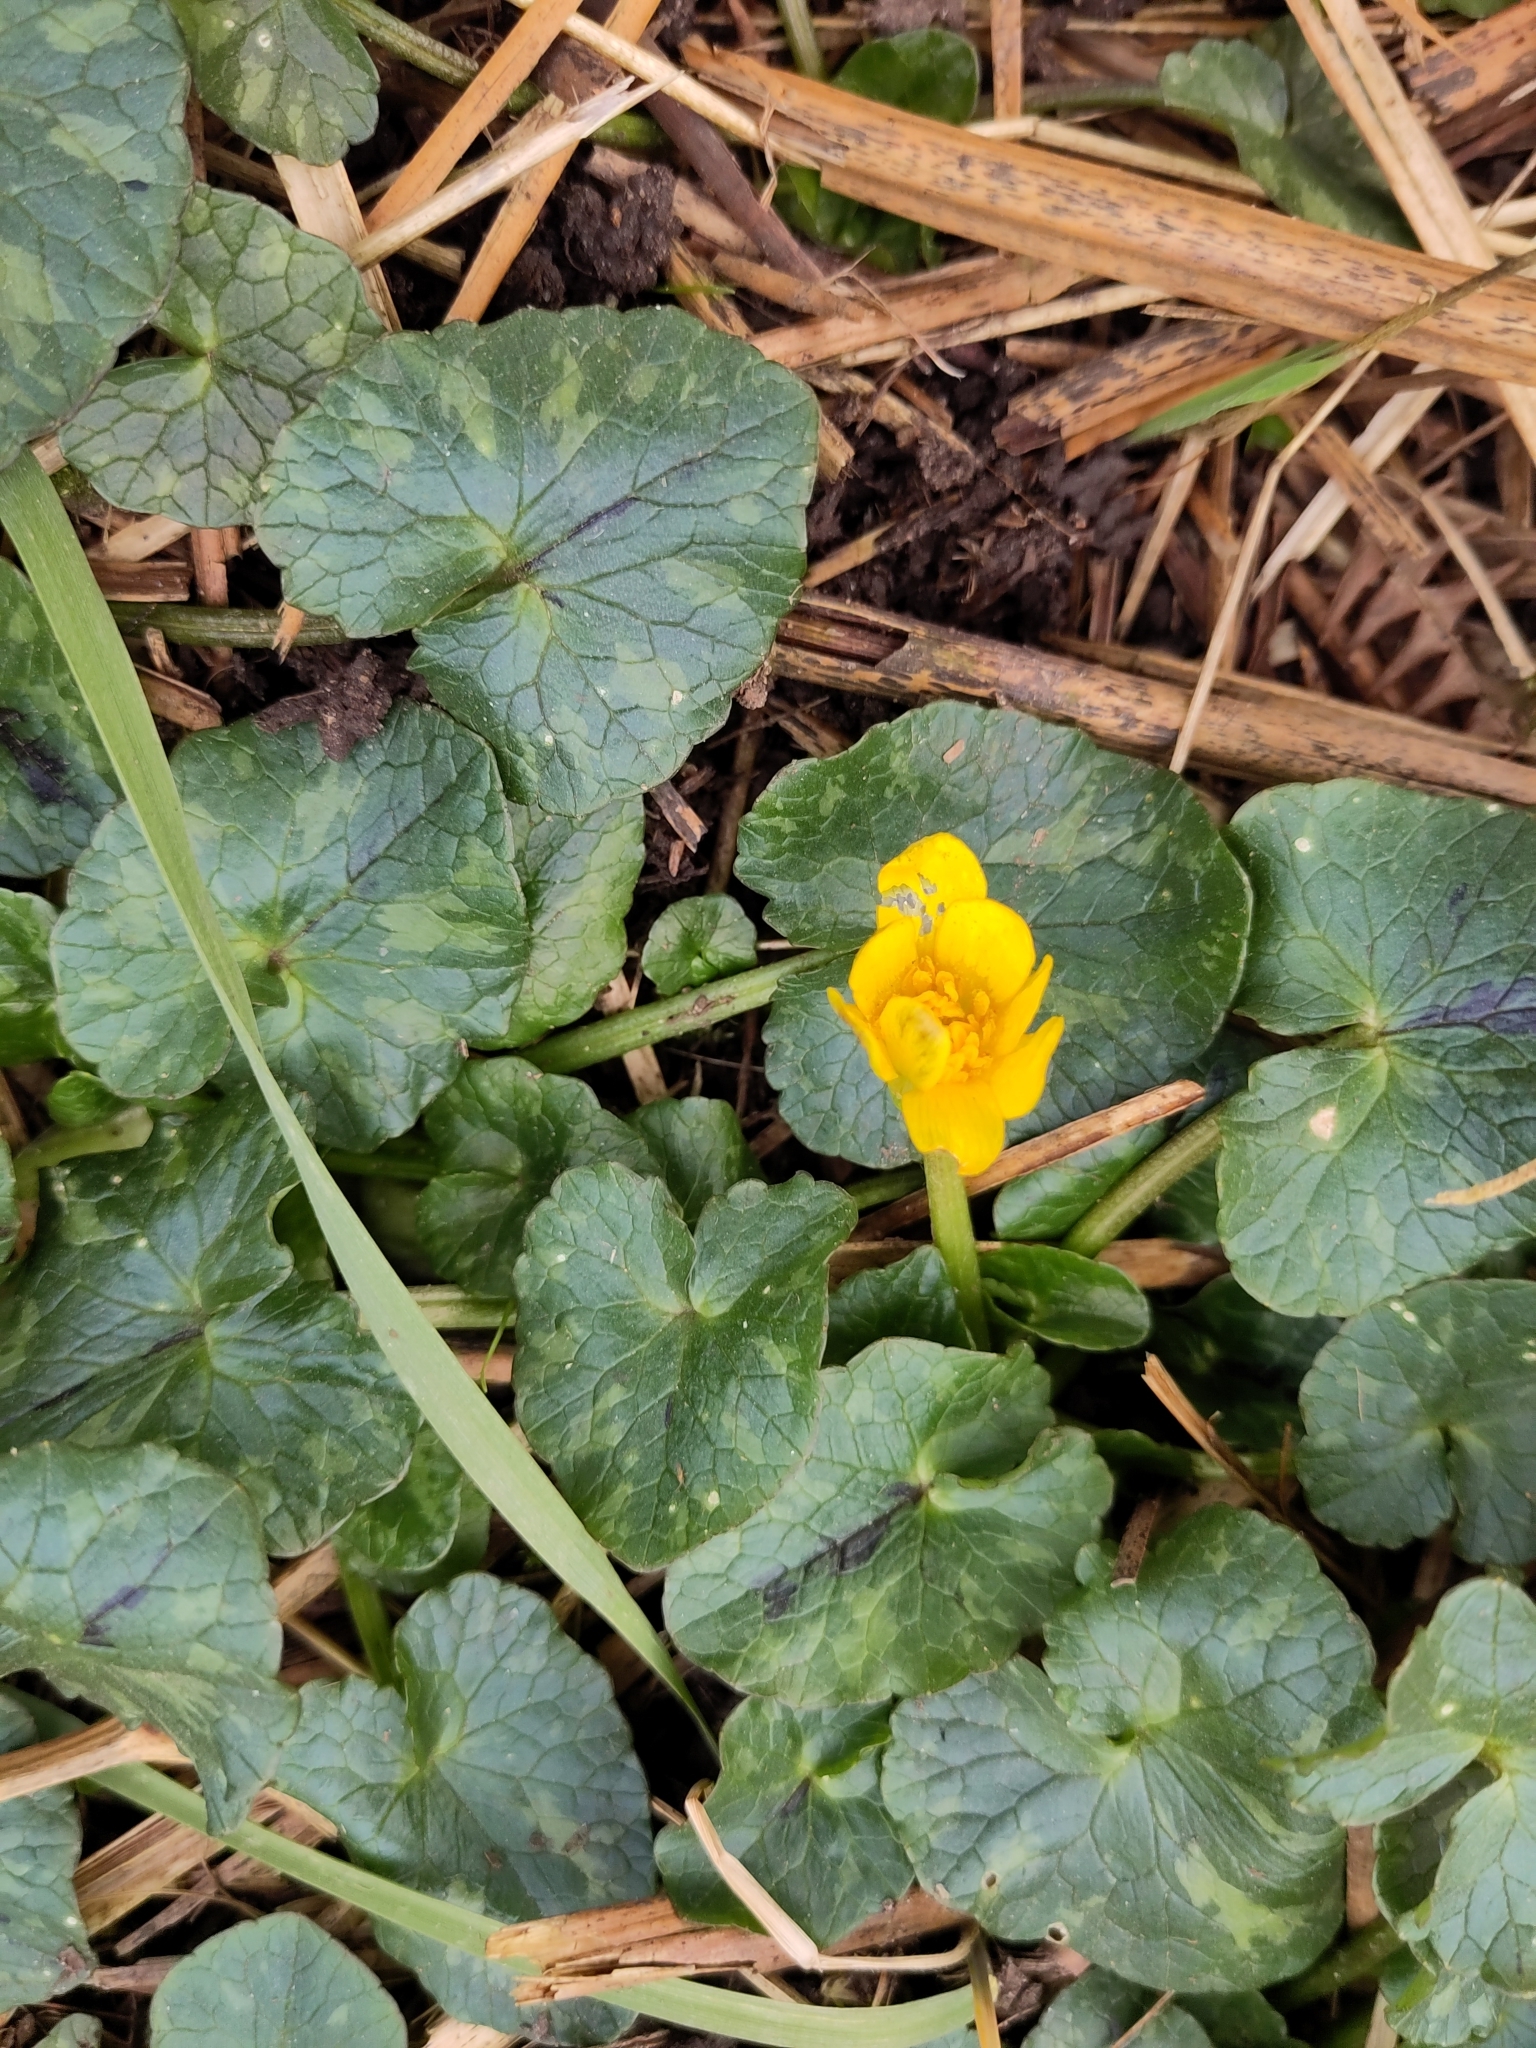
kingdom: Plantae
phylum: Tracheophyta
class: Magnoliopsida
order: Ranunculales
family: Ranunculaceae
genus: Ficaria
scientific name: Ficaria verna
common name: Lesser celandine
